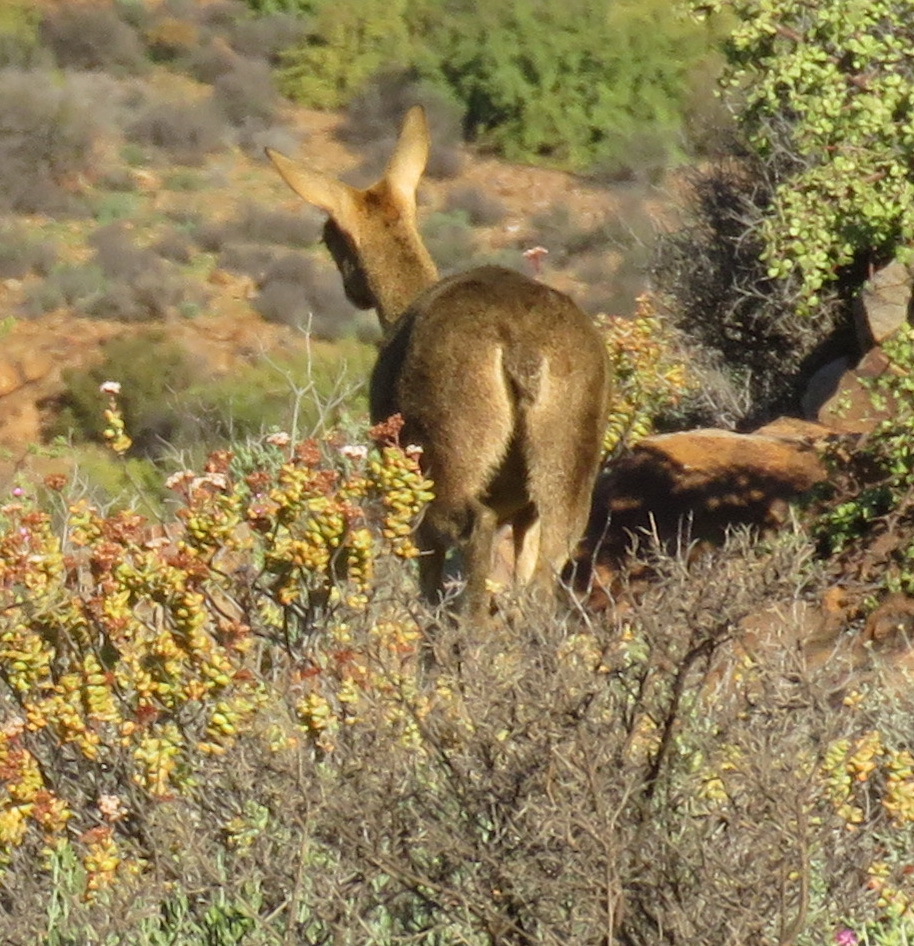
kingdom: Animalia
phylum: Chordata
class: Mammalia
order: Artiodactyla
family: Bovidae
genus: Oreotragus
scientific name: Oreotragus oreotragus
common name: Klipspringer
